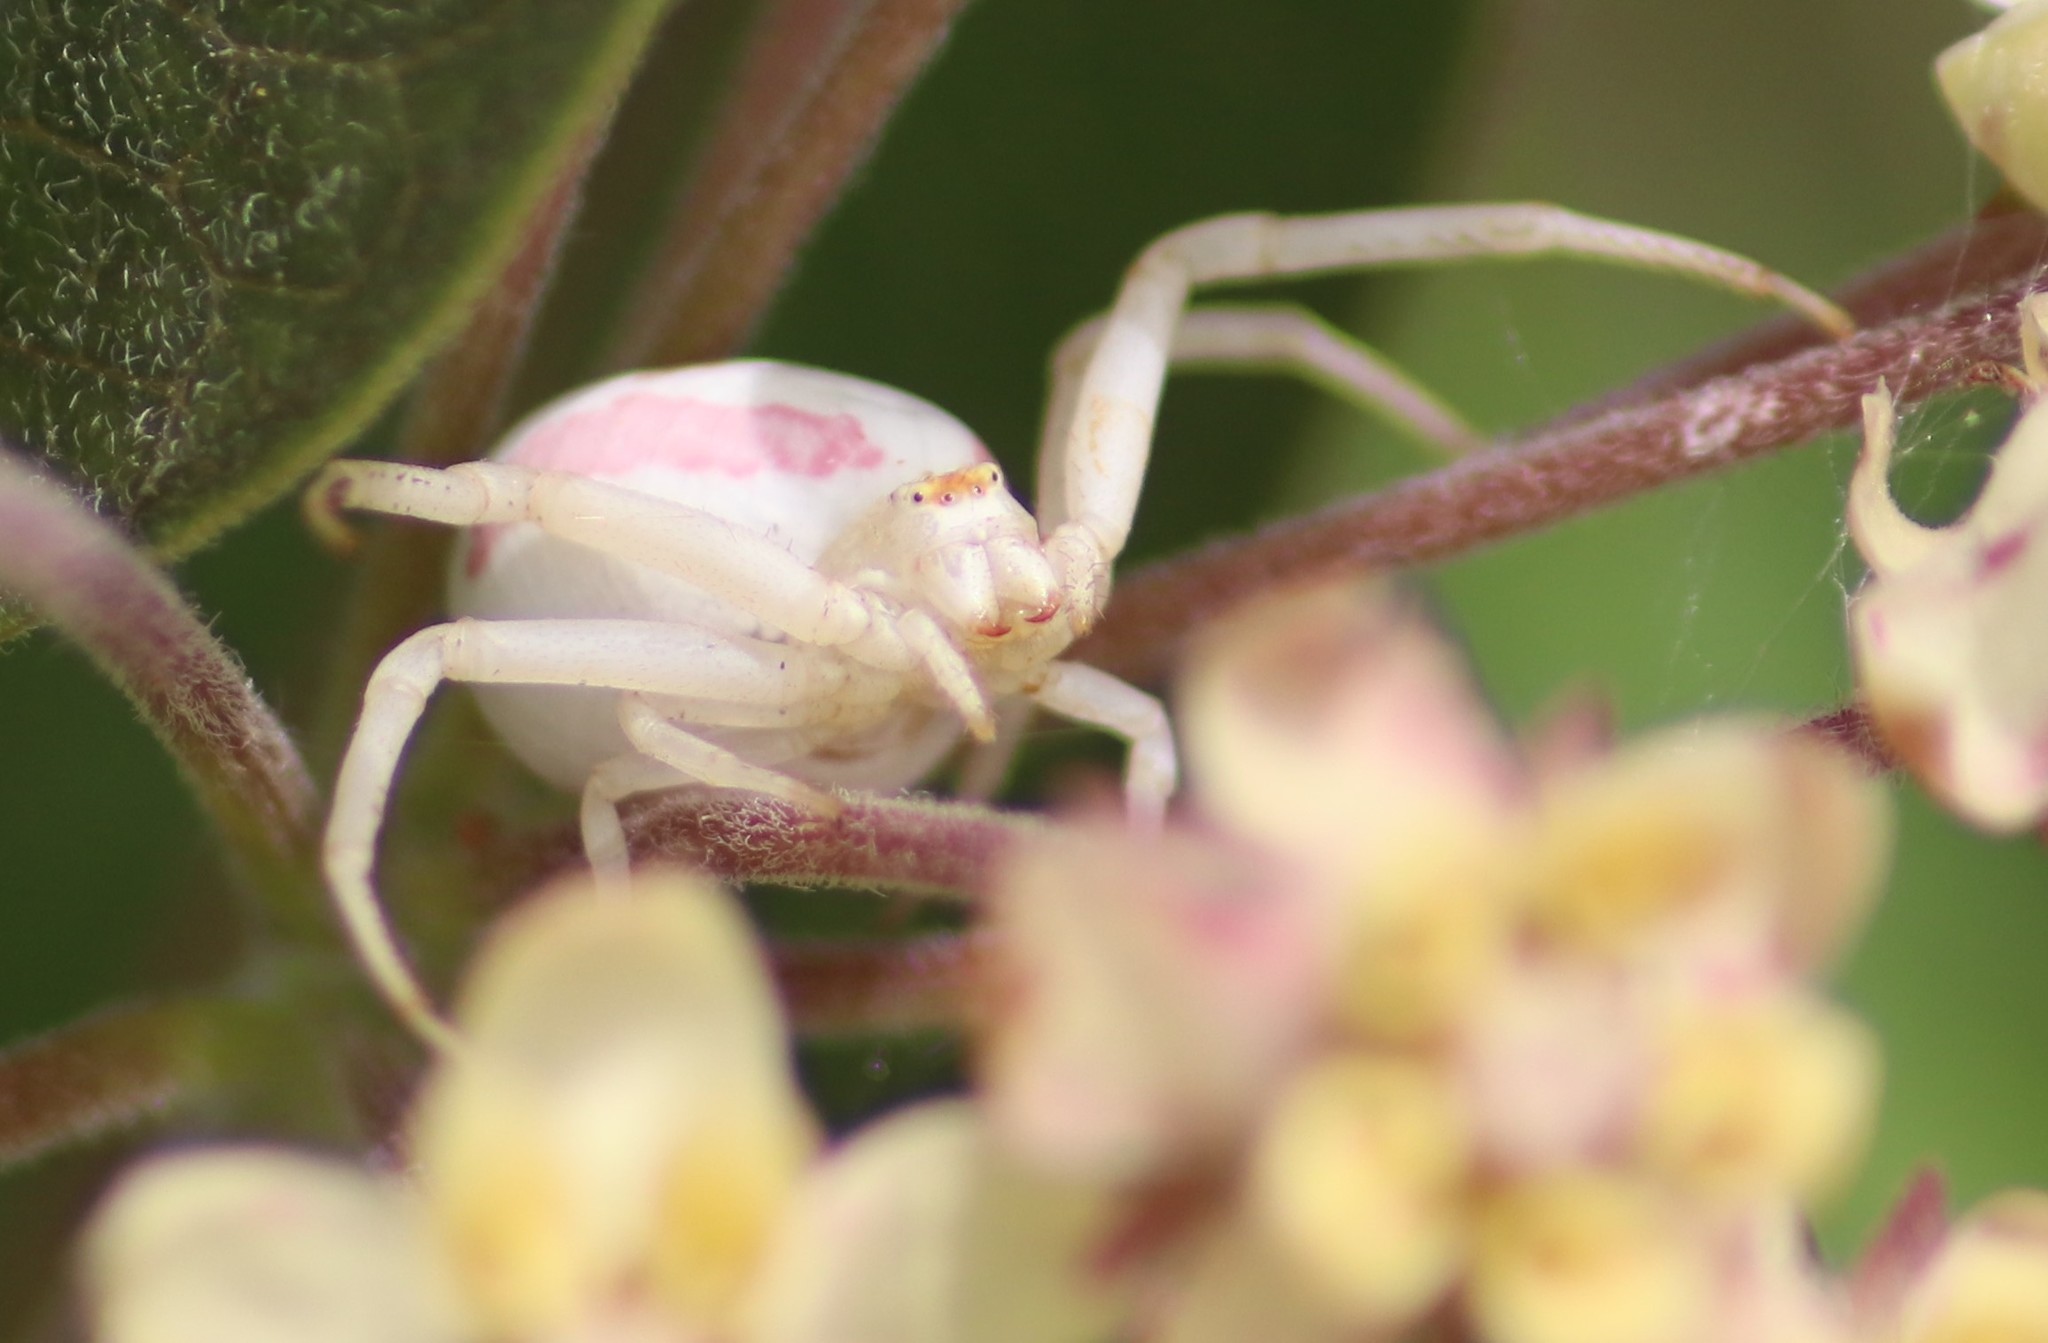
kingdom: Animalia
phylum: Arthropoda
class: Arachnida
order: Araneae
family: Thomisidae
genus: Misumena
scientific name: Misumena vatia
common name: Goldenrod crab spider
